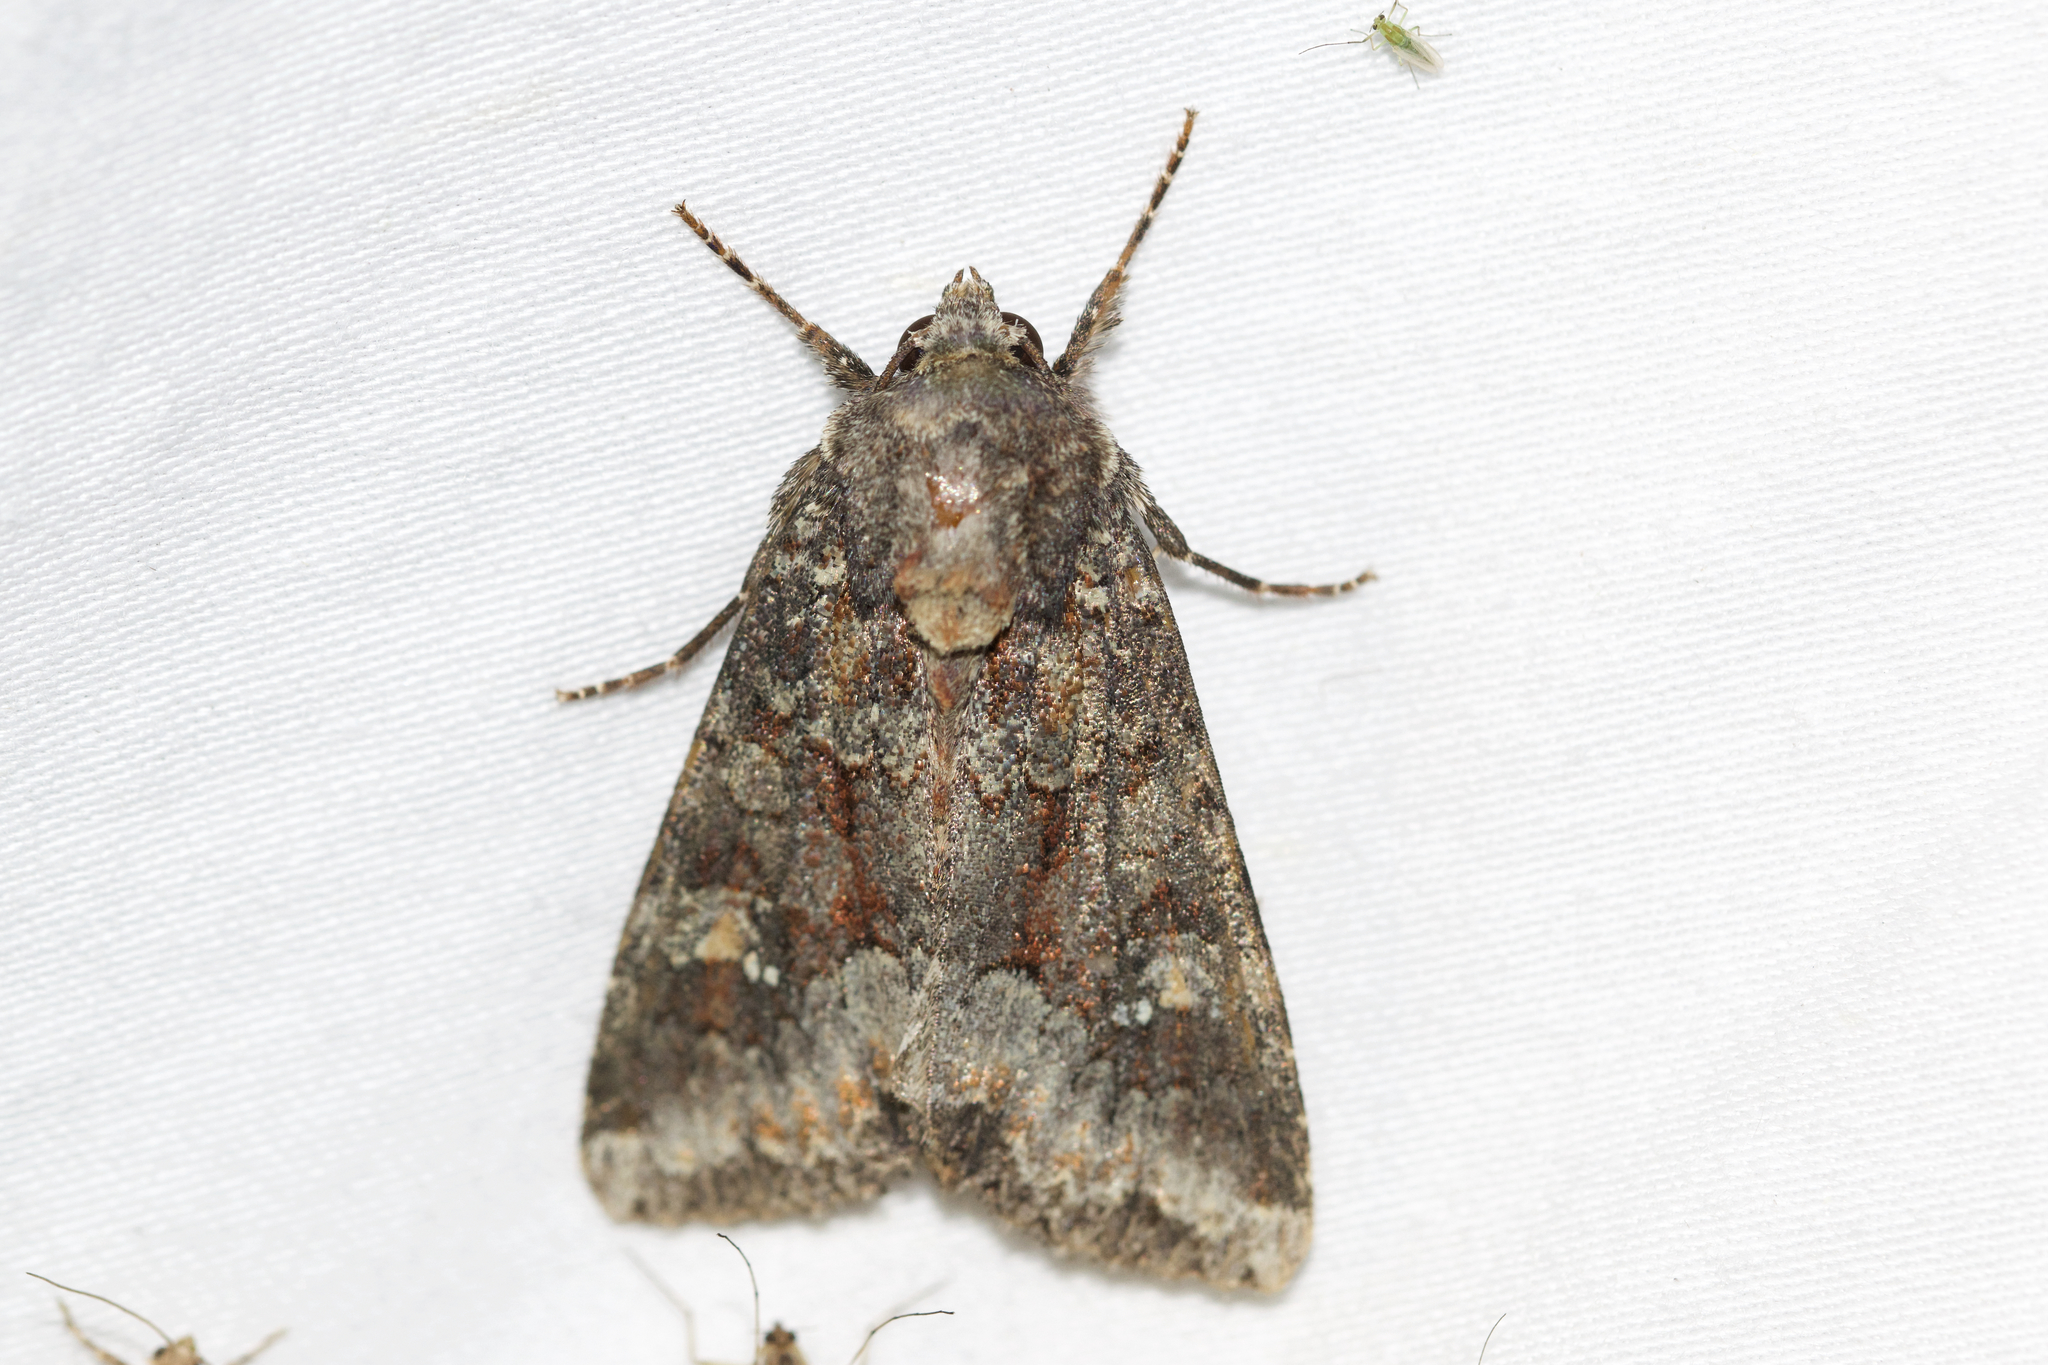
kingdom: Animalia
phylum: Arthropoda
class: Insecta
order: Lepidoptera
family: Noctuidae
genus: Apamea
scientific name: Apamea amputatrix
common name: Yellow-headed cutworm moth
